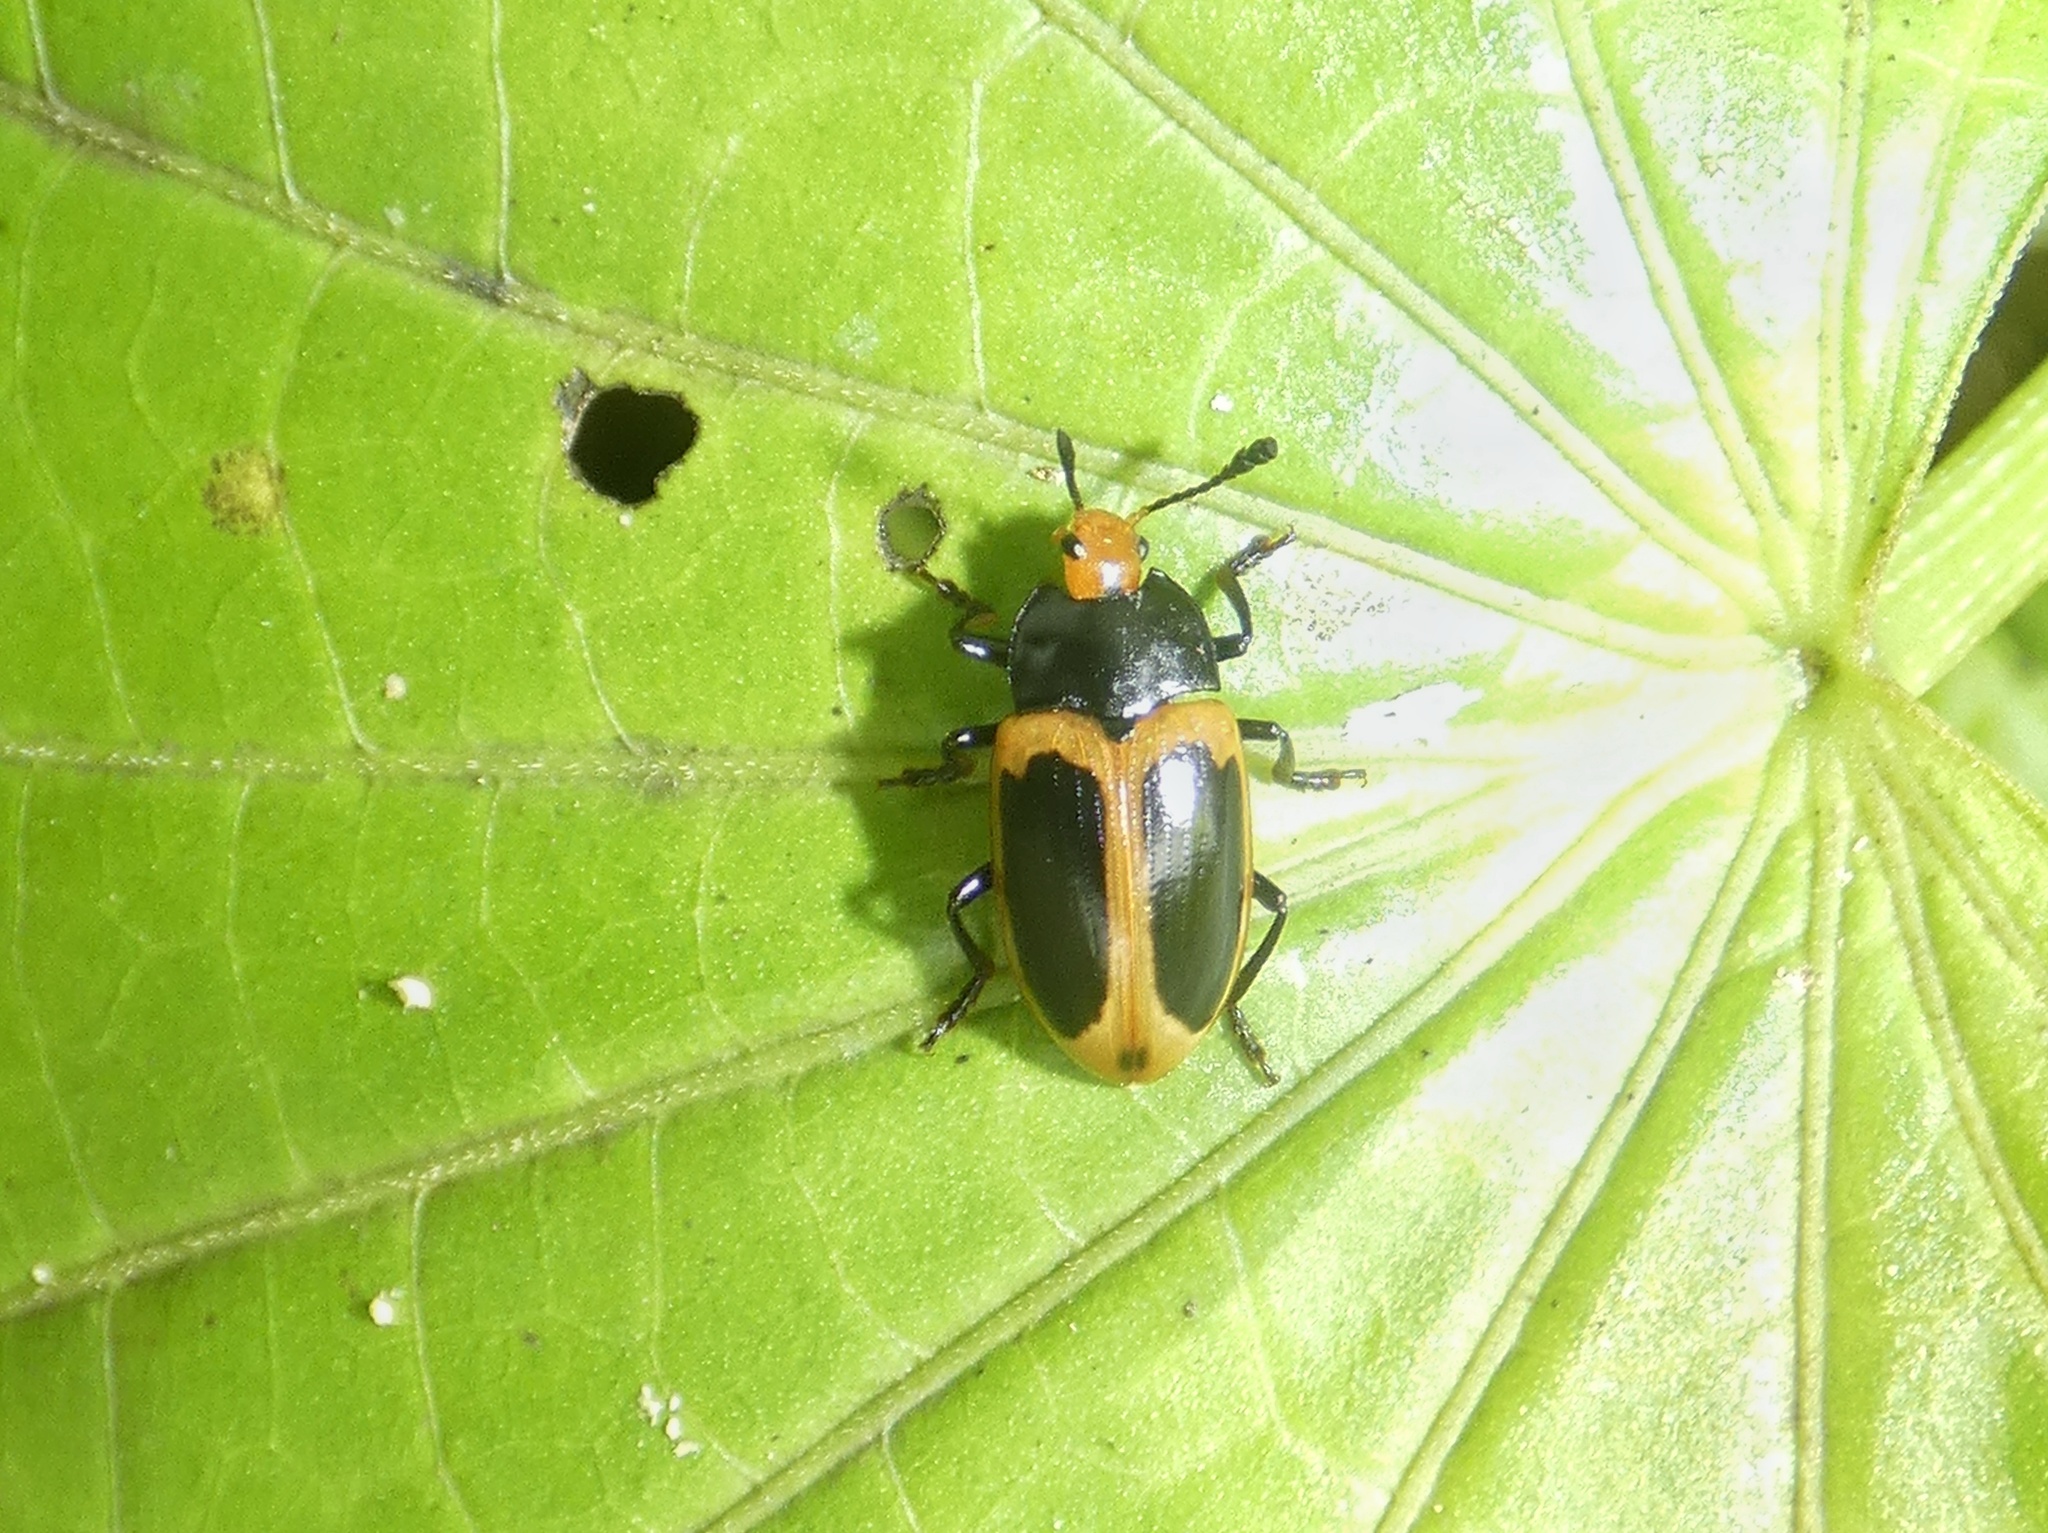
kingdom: Animalia
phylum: Arthropoda
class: Insecta
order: Coleoptera
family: Erotylidae
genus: Iphiclus
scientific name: Iphiclus
